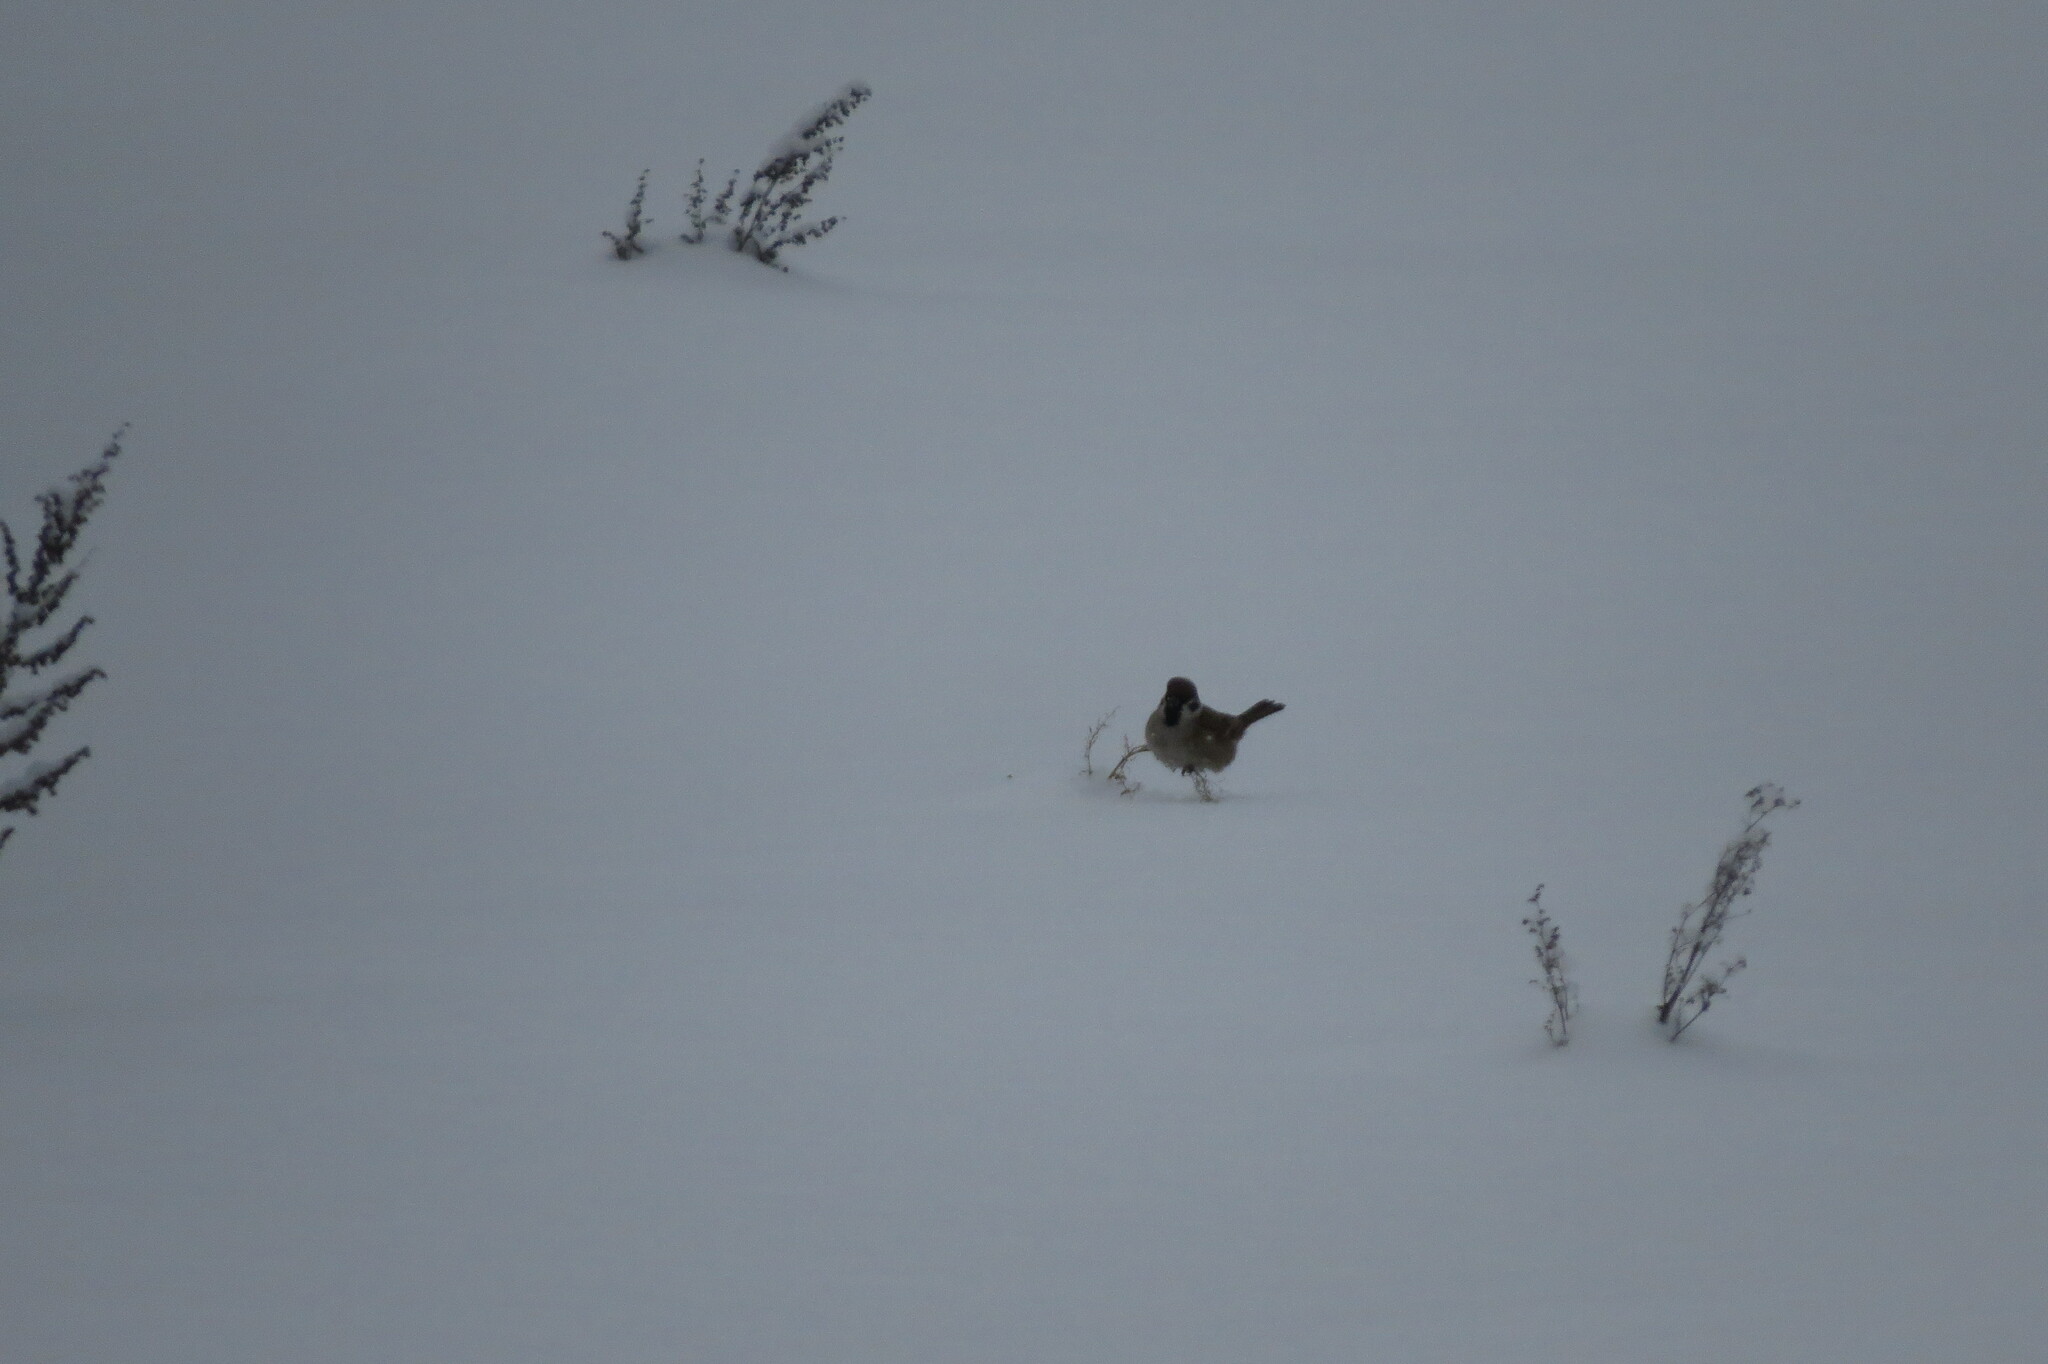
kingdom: Animalia
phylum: Chordata
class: Aves
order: Passeriformes
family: Passeridae
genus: Passer
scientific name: Passer montanus
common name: Eurasian tree sparrow
